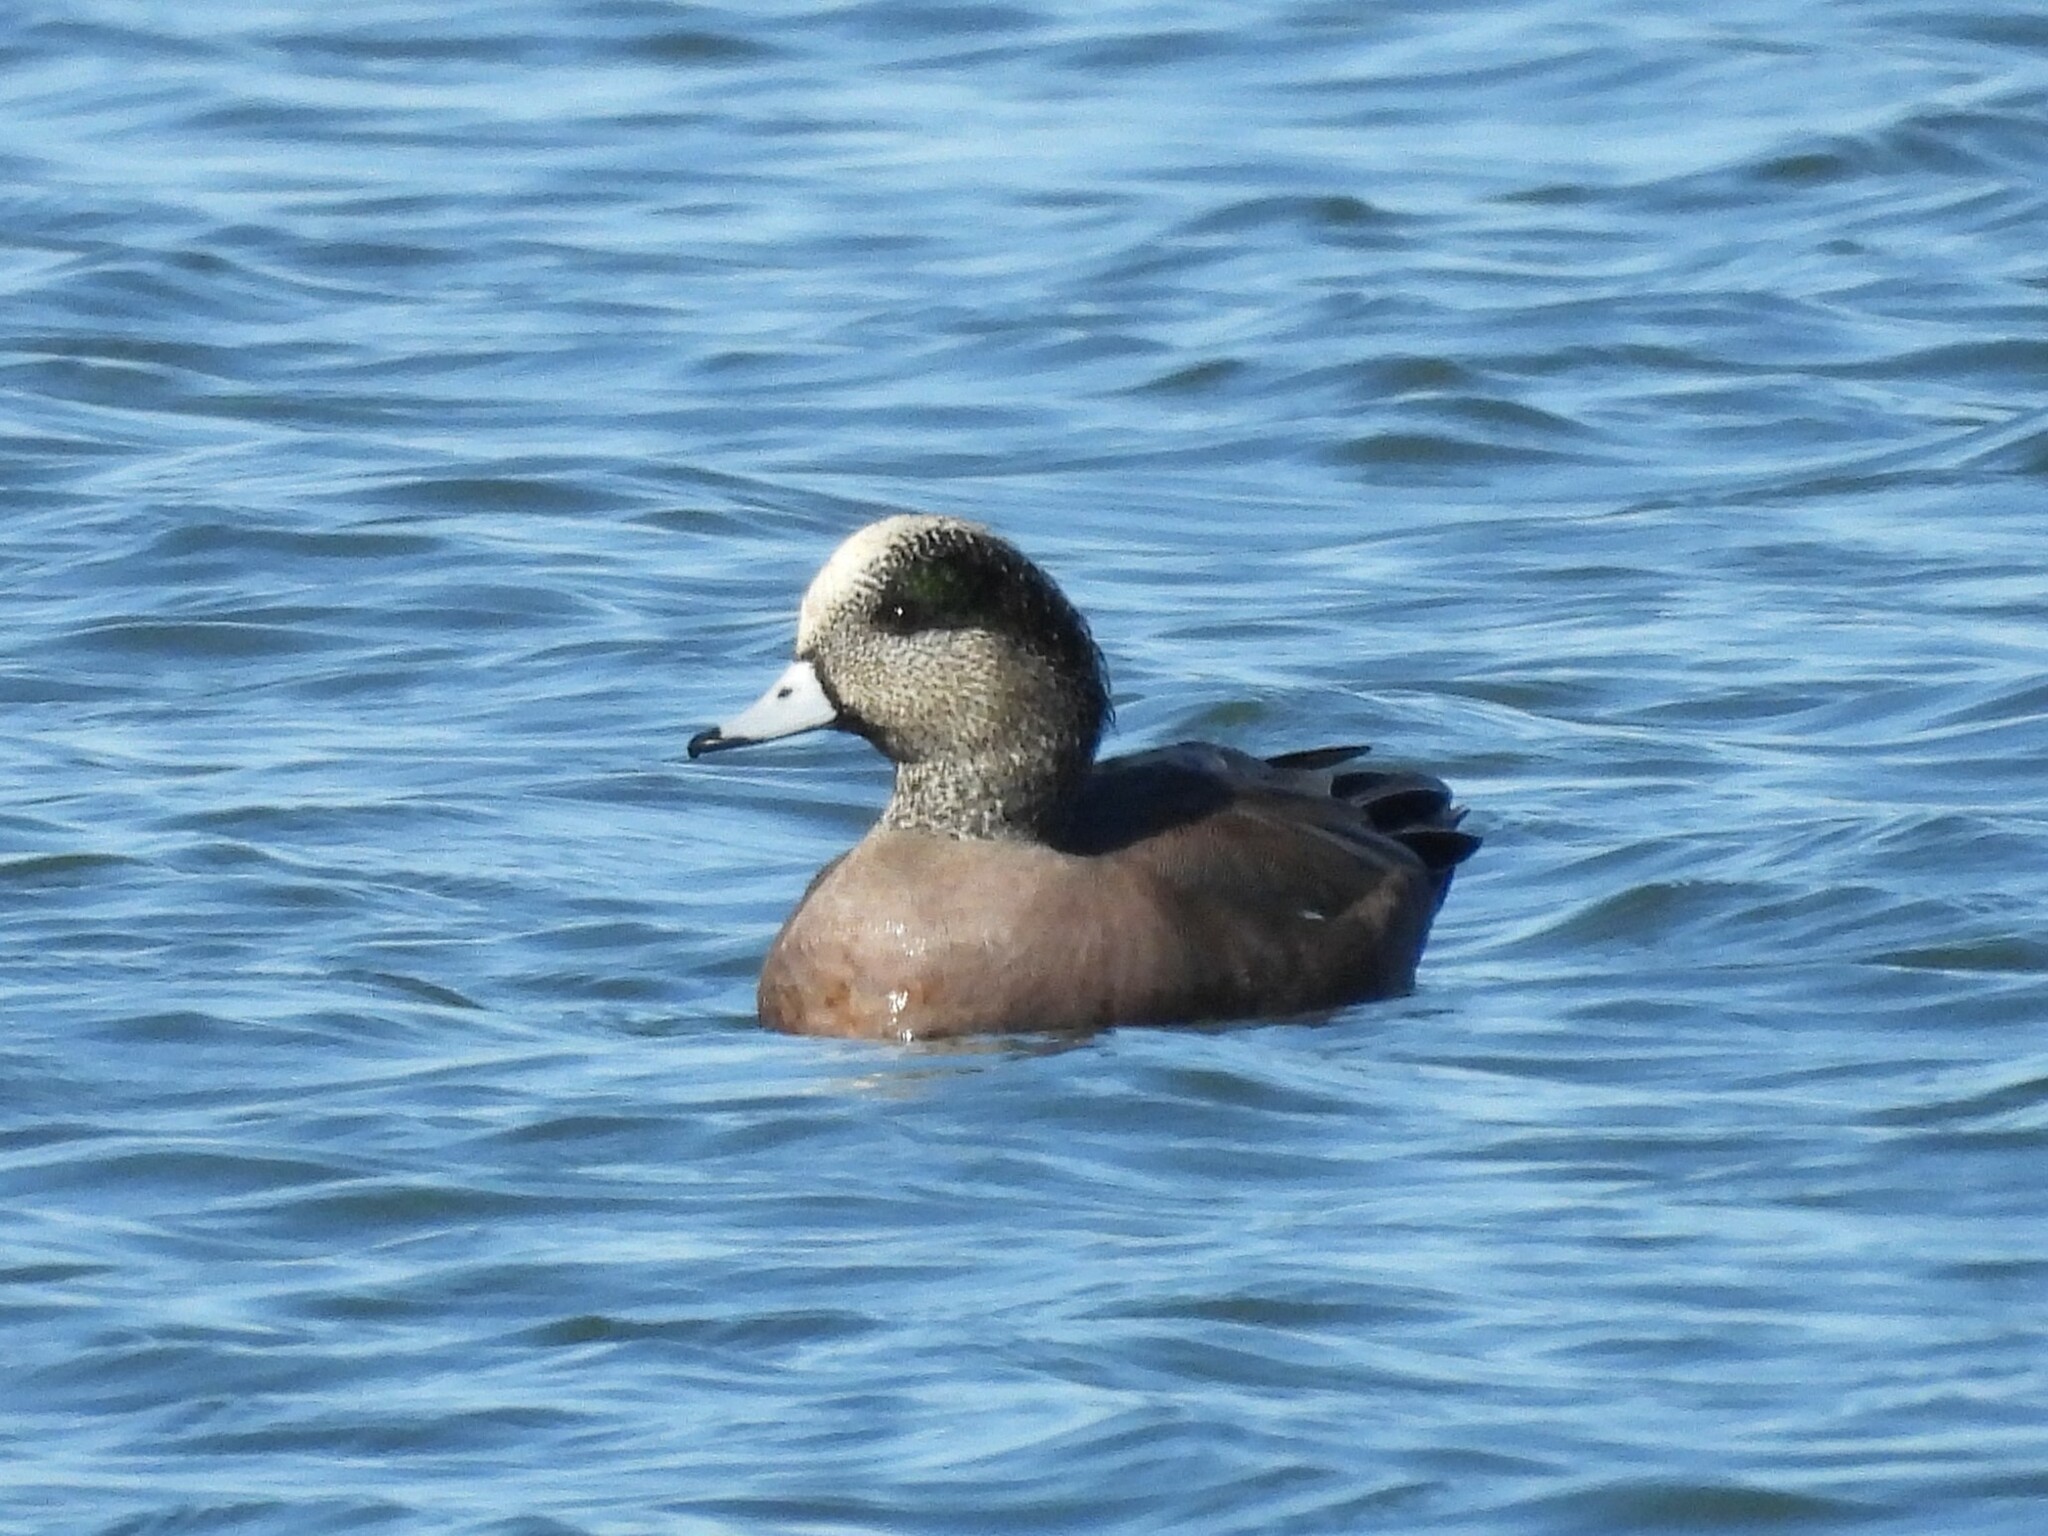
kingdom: Animalia
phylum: Chordata
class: Aves
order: Anseriformes
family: Anatidae
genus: Mareca
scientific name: Mareca americana
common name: American wigeon
